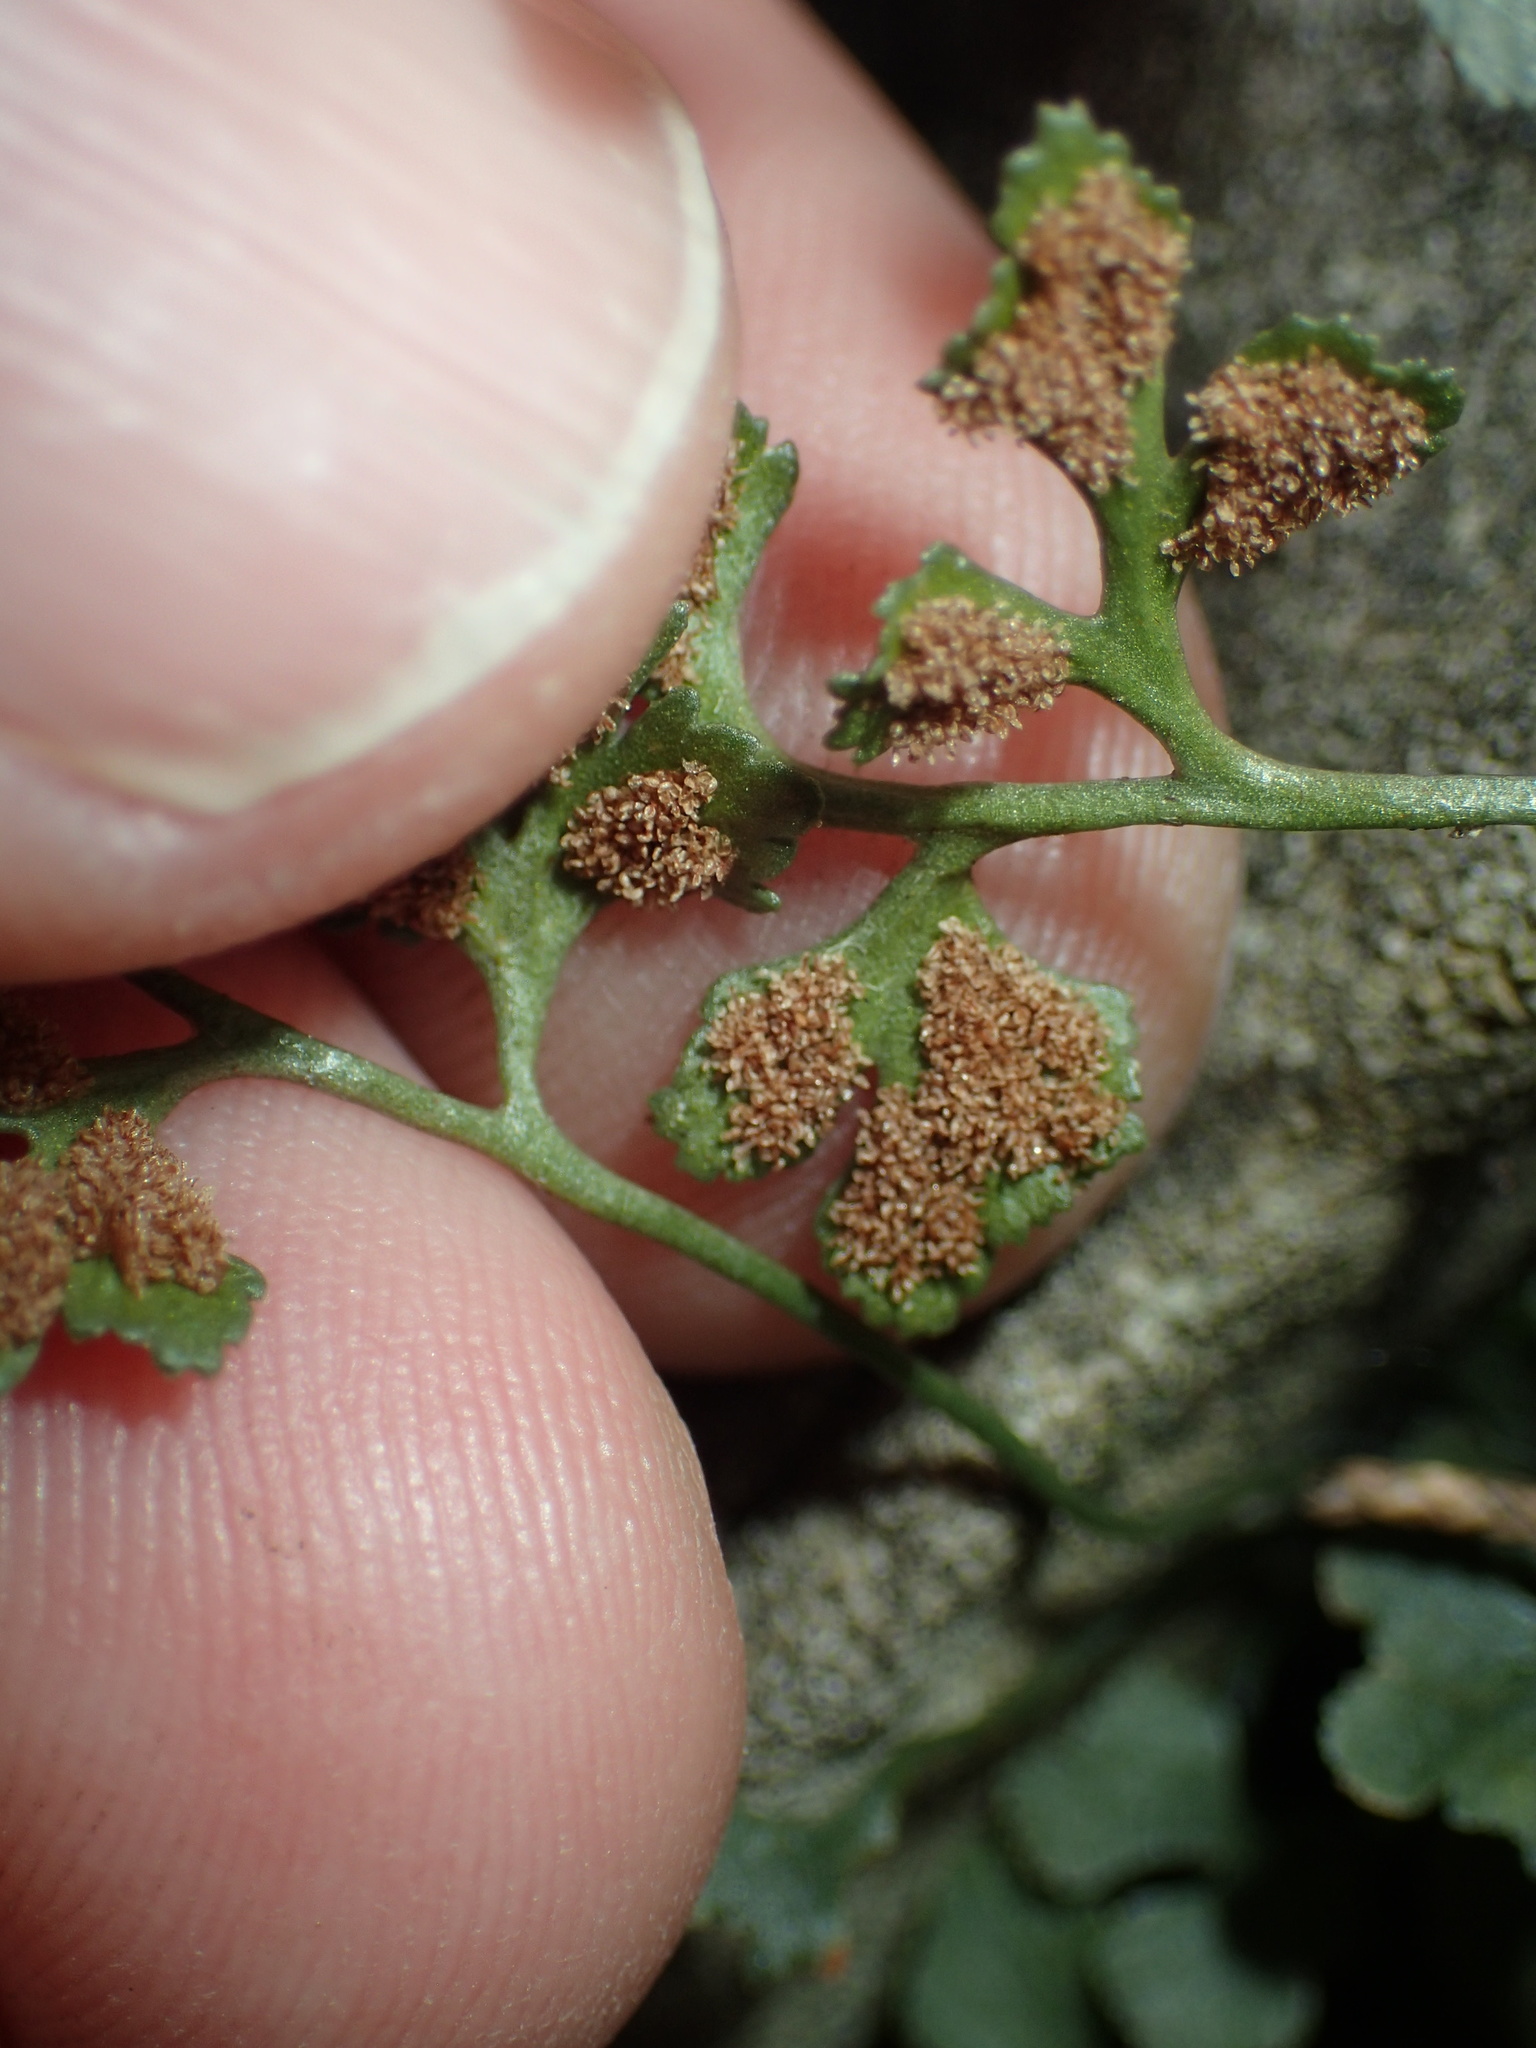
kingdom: Plantae
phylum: Tracheophyta
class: Polypodiopsida
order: Polypodiales
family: Aspleniaceae
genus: Asplenium
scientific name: Asplenium ruta-muraria
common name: Wall-rue
